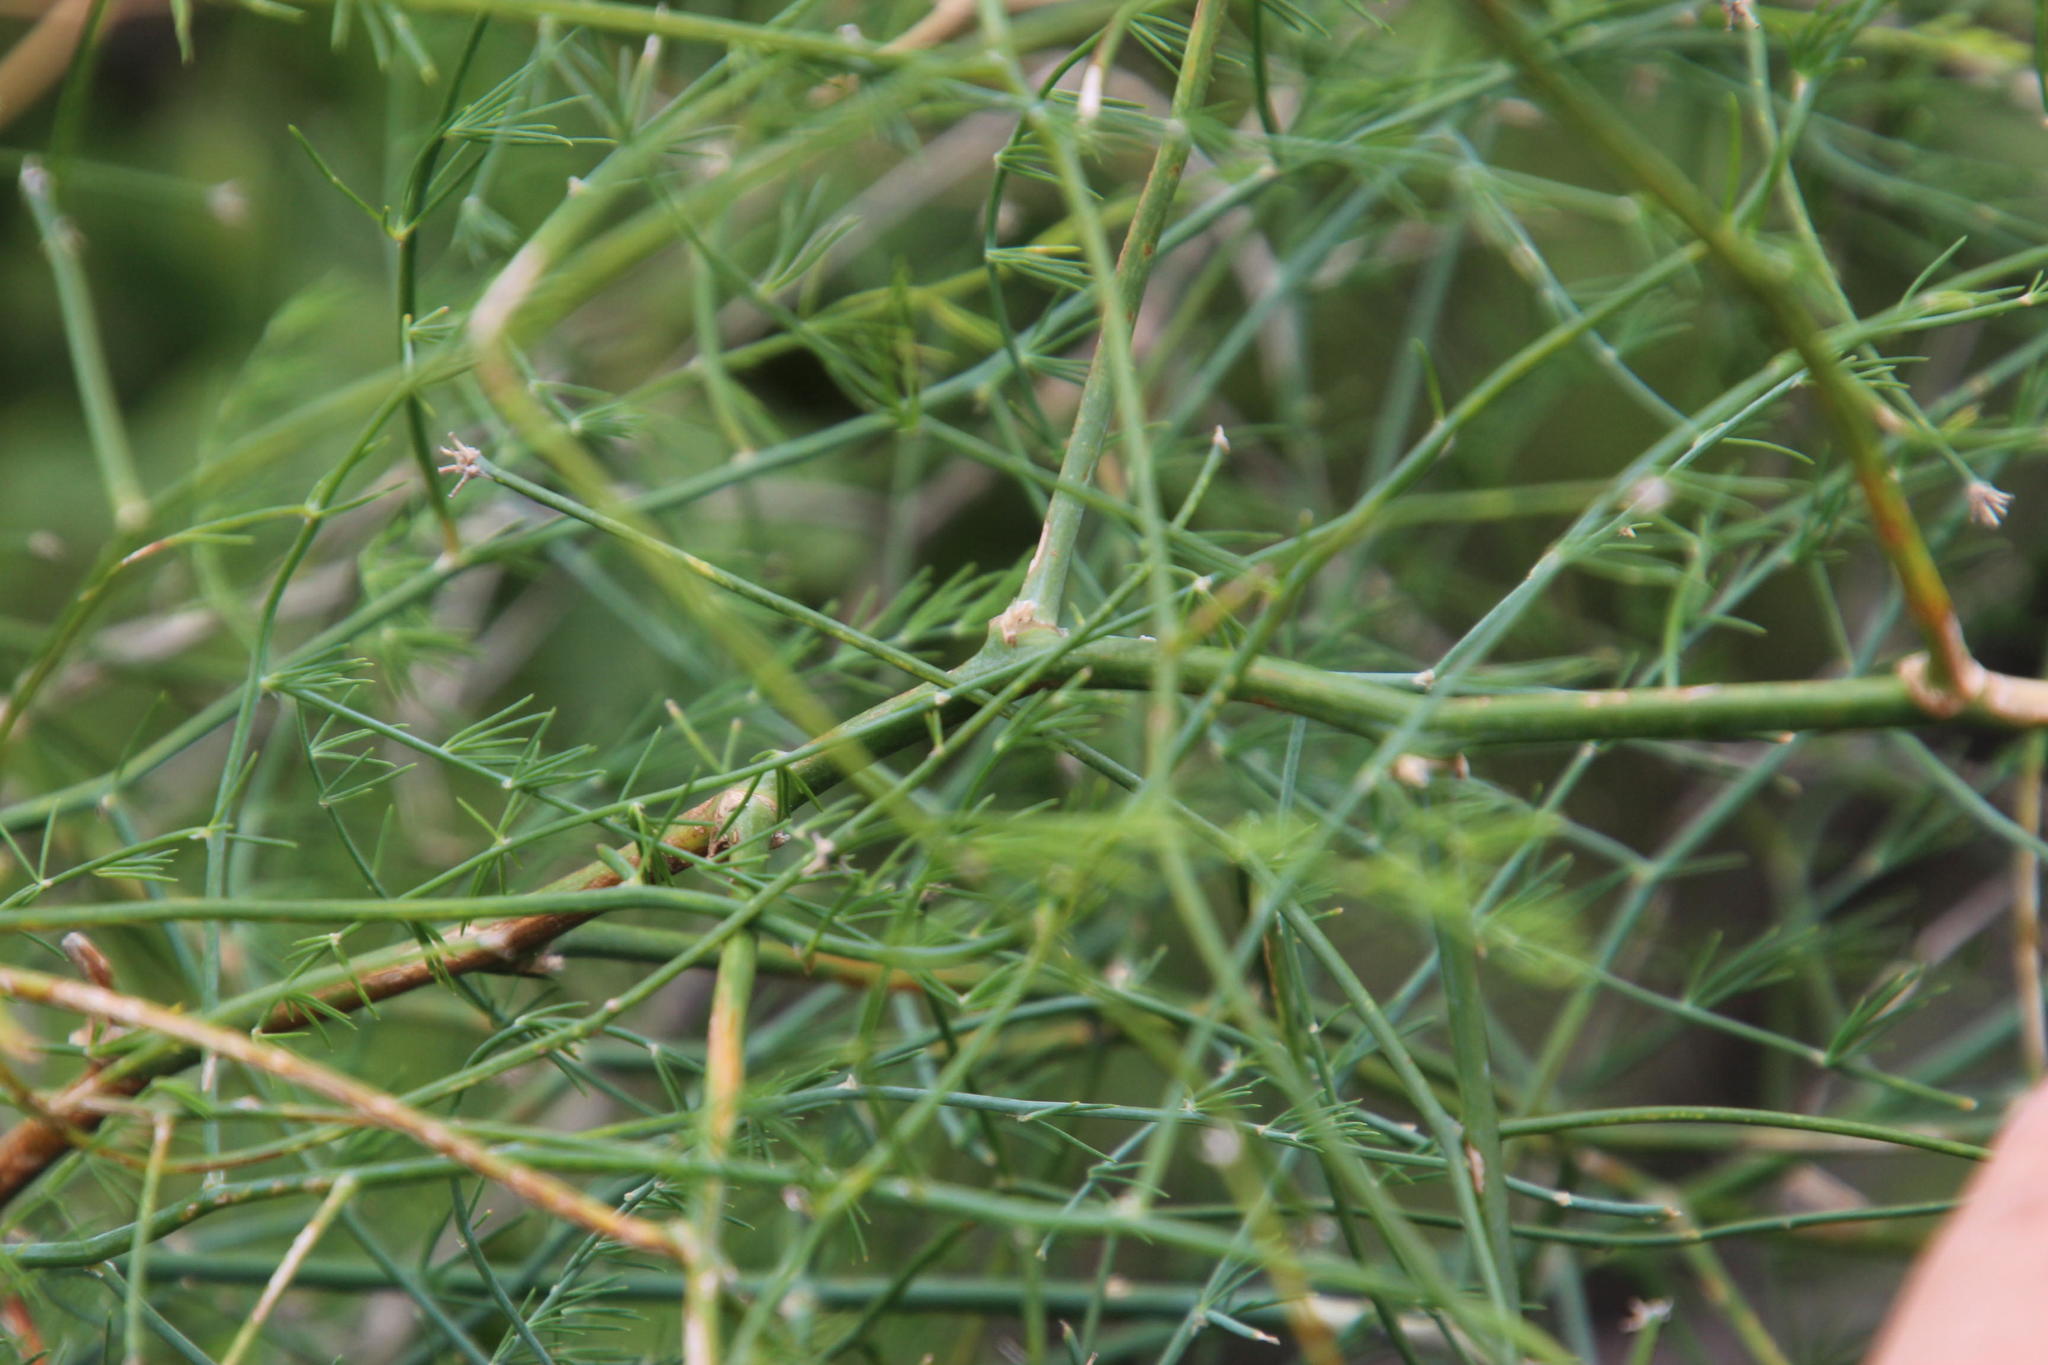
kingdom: Plantae
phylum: Tracheophyta
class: Liliopsida
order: Asparagales
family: Asparagaceae
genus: Asparagus
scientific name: Asparagus denudatus
